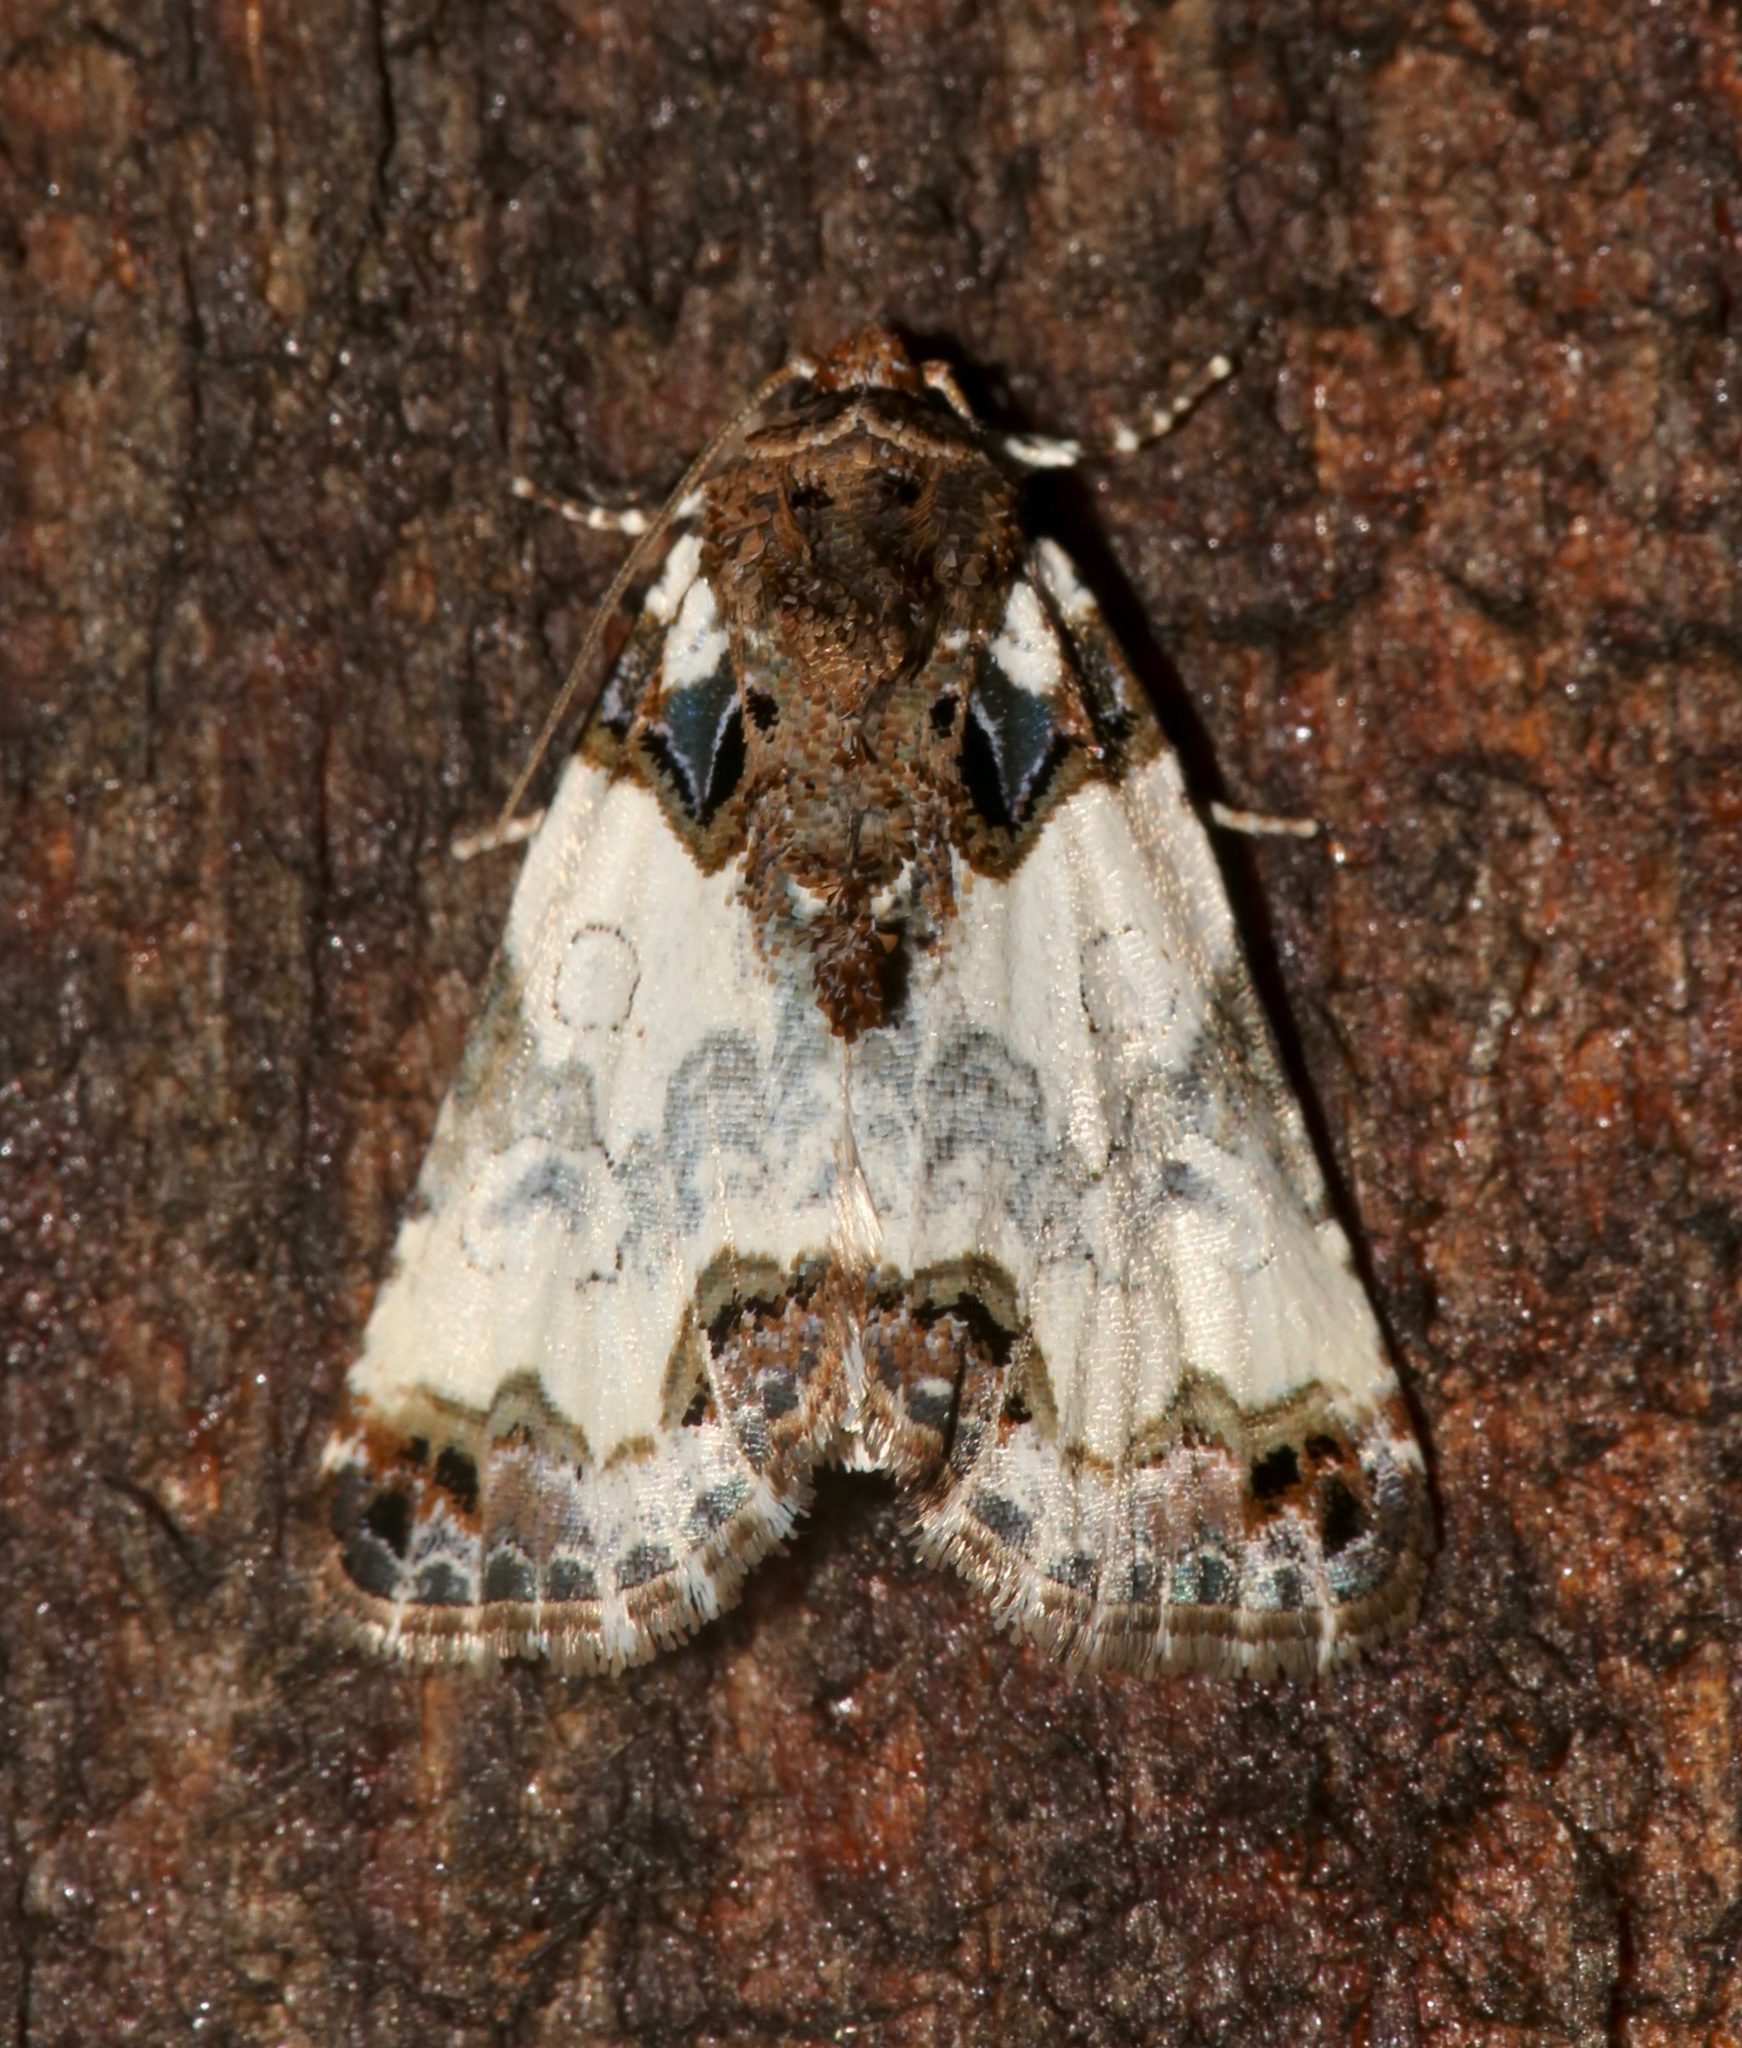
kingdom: Animalia
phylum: Arthropoda
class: Insecta
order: Lepidoptera
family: Noctuidae
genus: Cerma
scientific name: Cerma cerintha
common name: Tufted bird-dropping moth
